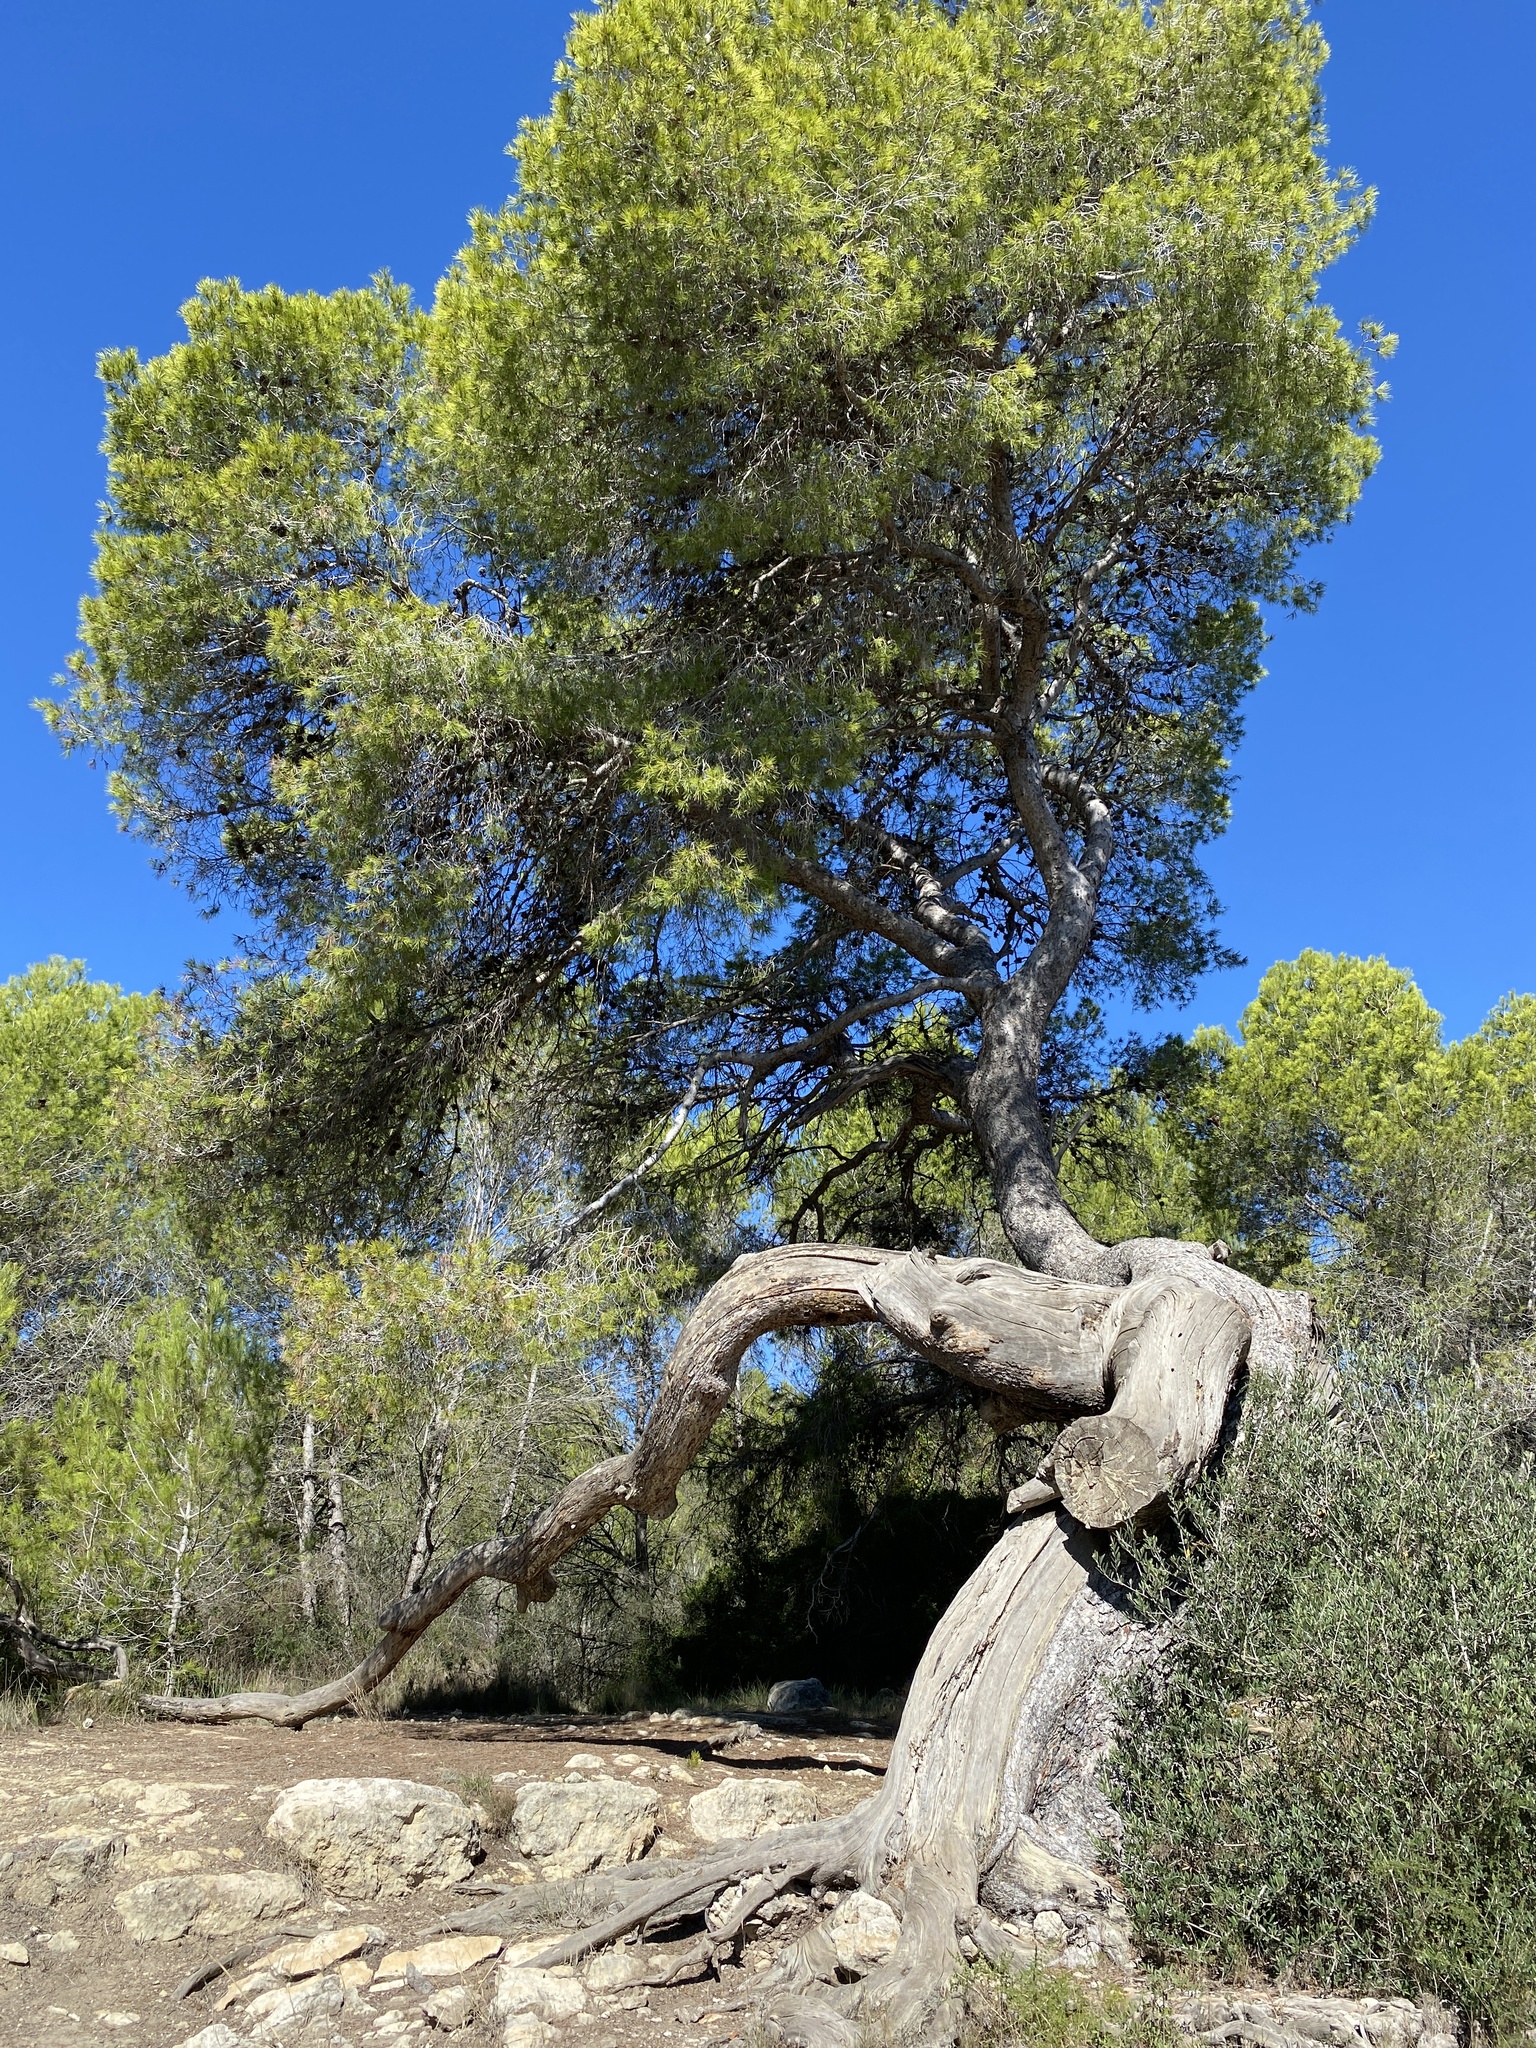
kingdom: Plantae
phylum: Tracheophyta
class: Pinopsida
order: Pinales
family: Pinaceae
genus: Pinus
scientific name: Pinus halepensis
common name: Aleppo pine
